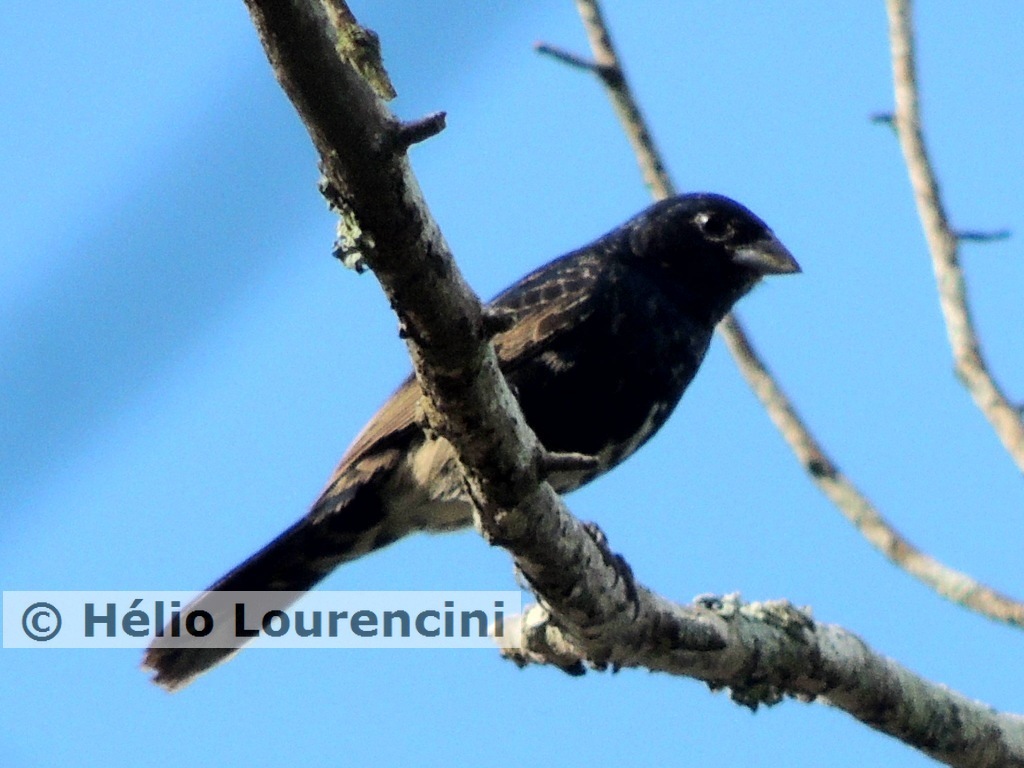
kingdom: Animalia
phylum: Chordata
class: Aves
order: Passeriformes
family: Thraupidae
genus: Volatinia
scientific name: Volatinia jacarina
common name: Blue-black grassquit
